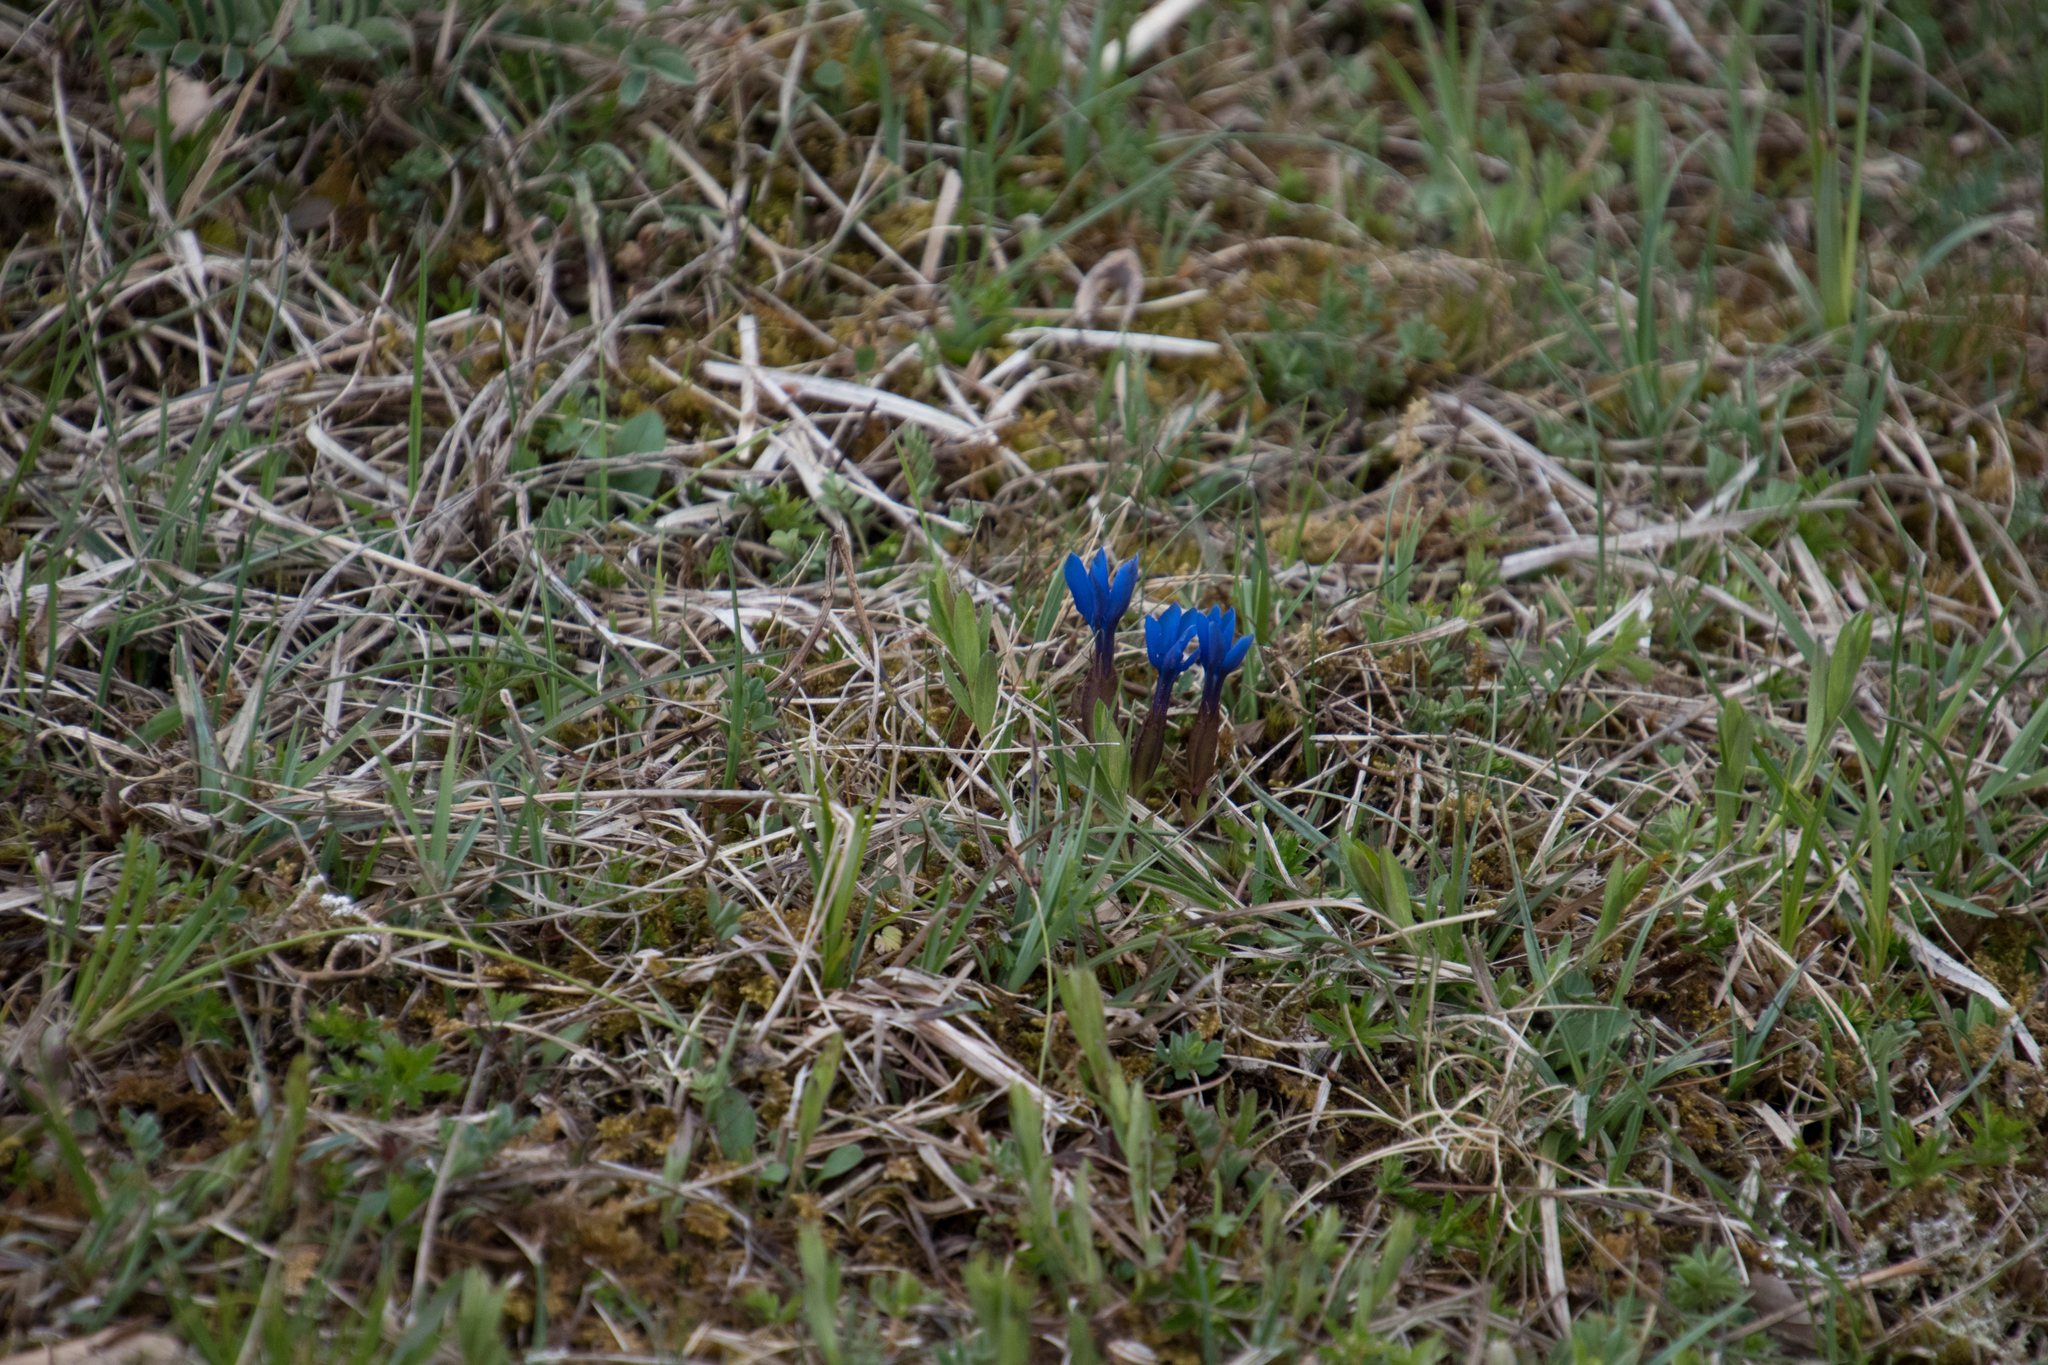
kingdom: Plantae
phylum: Tracheophyta
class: Magnoliopsida
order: Gentianales
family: Gentianaceae
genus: Gentiana
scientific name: Gentiana verna
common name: Spring gentian
